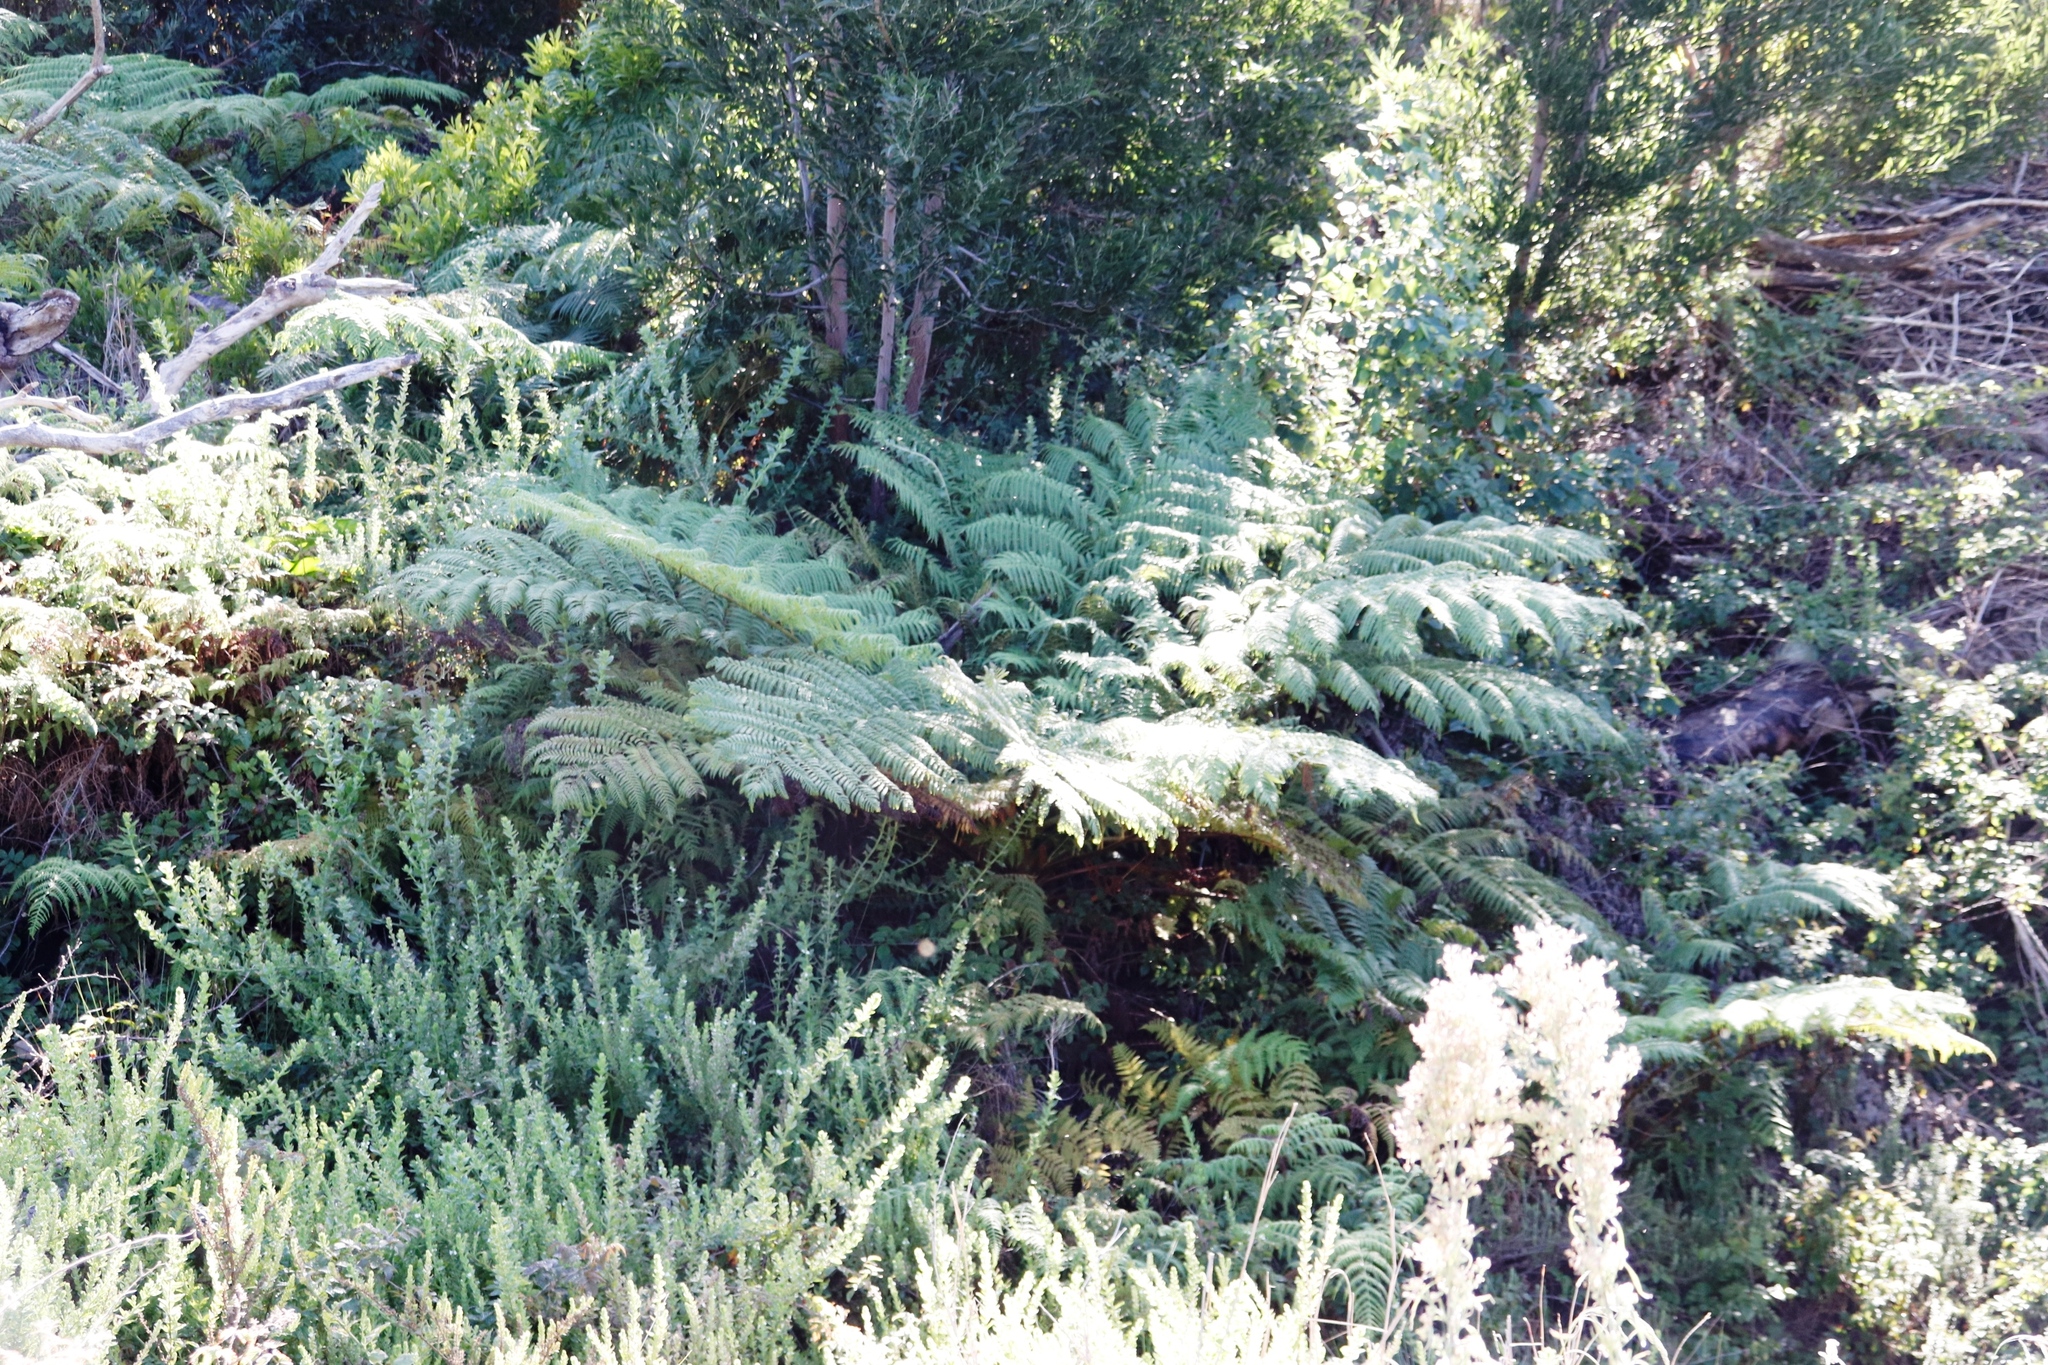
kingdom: Plantae
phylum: Tracheophyta
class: Polypodiopsida
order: Cyatheales
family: Cyatheaceae
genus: Sphaeropteris
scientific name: Sphaeropteris cooperi
